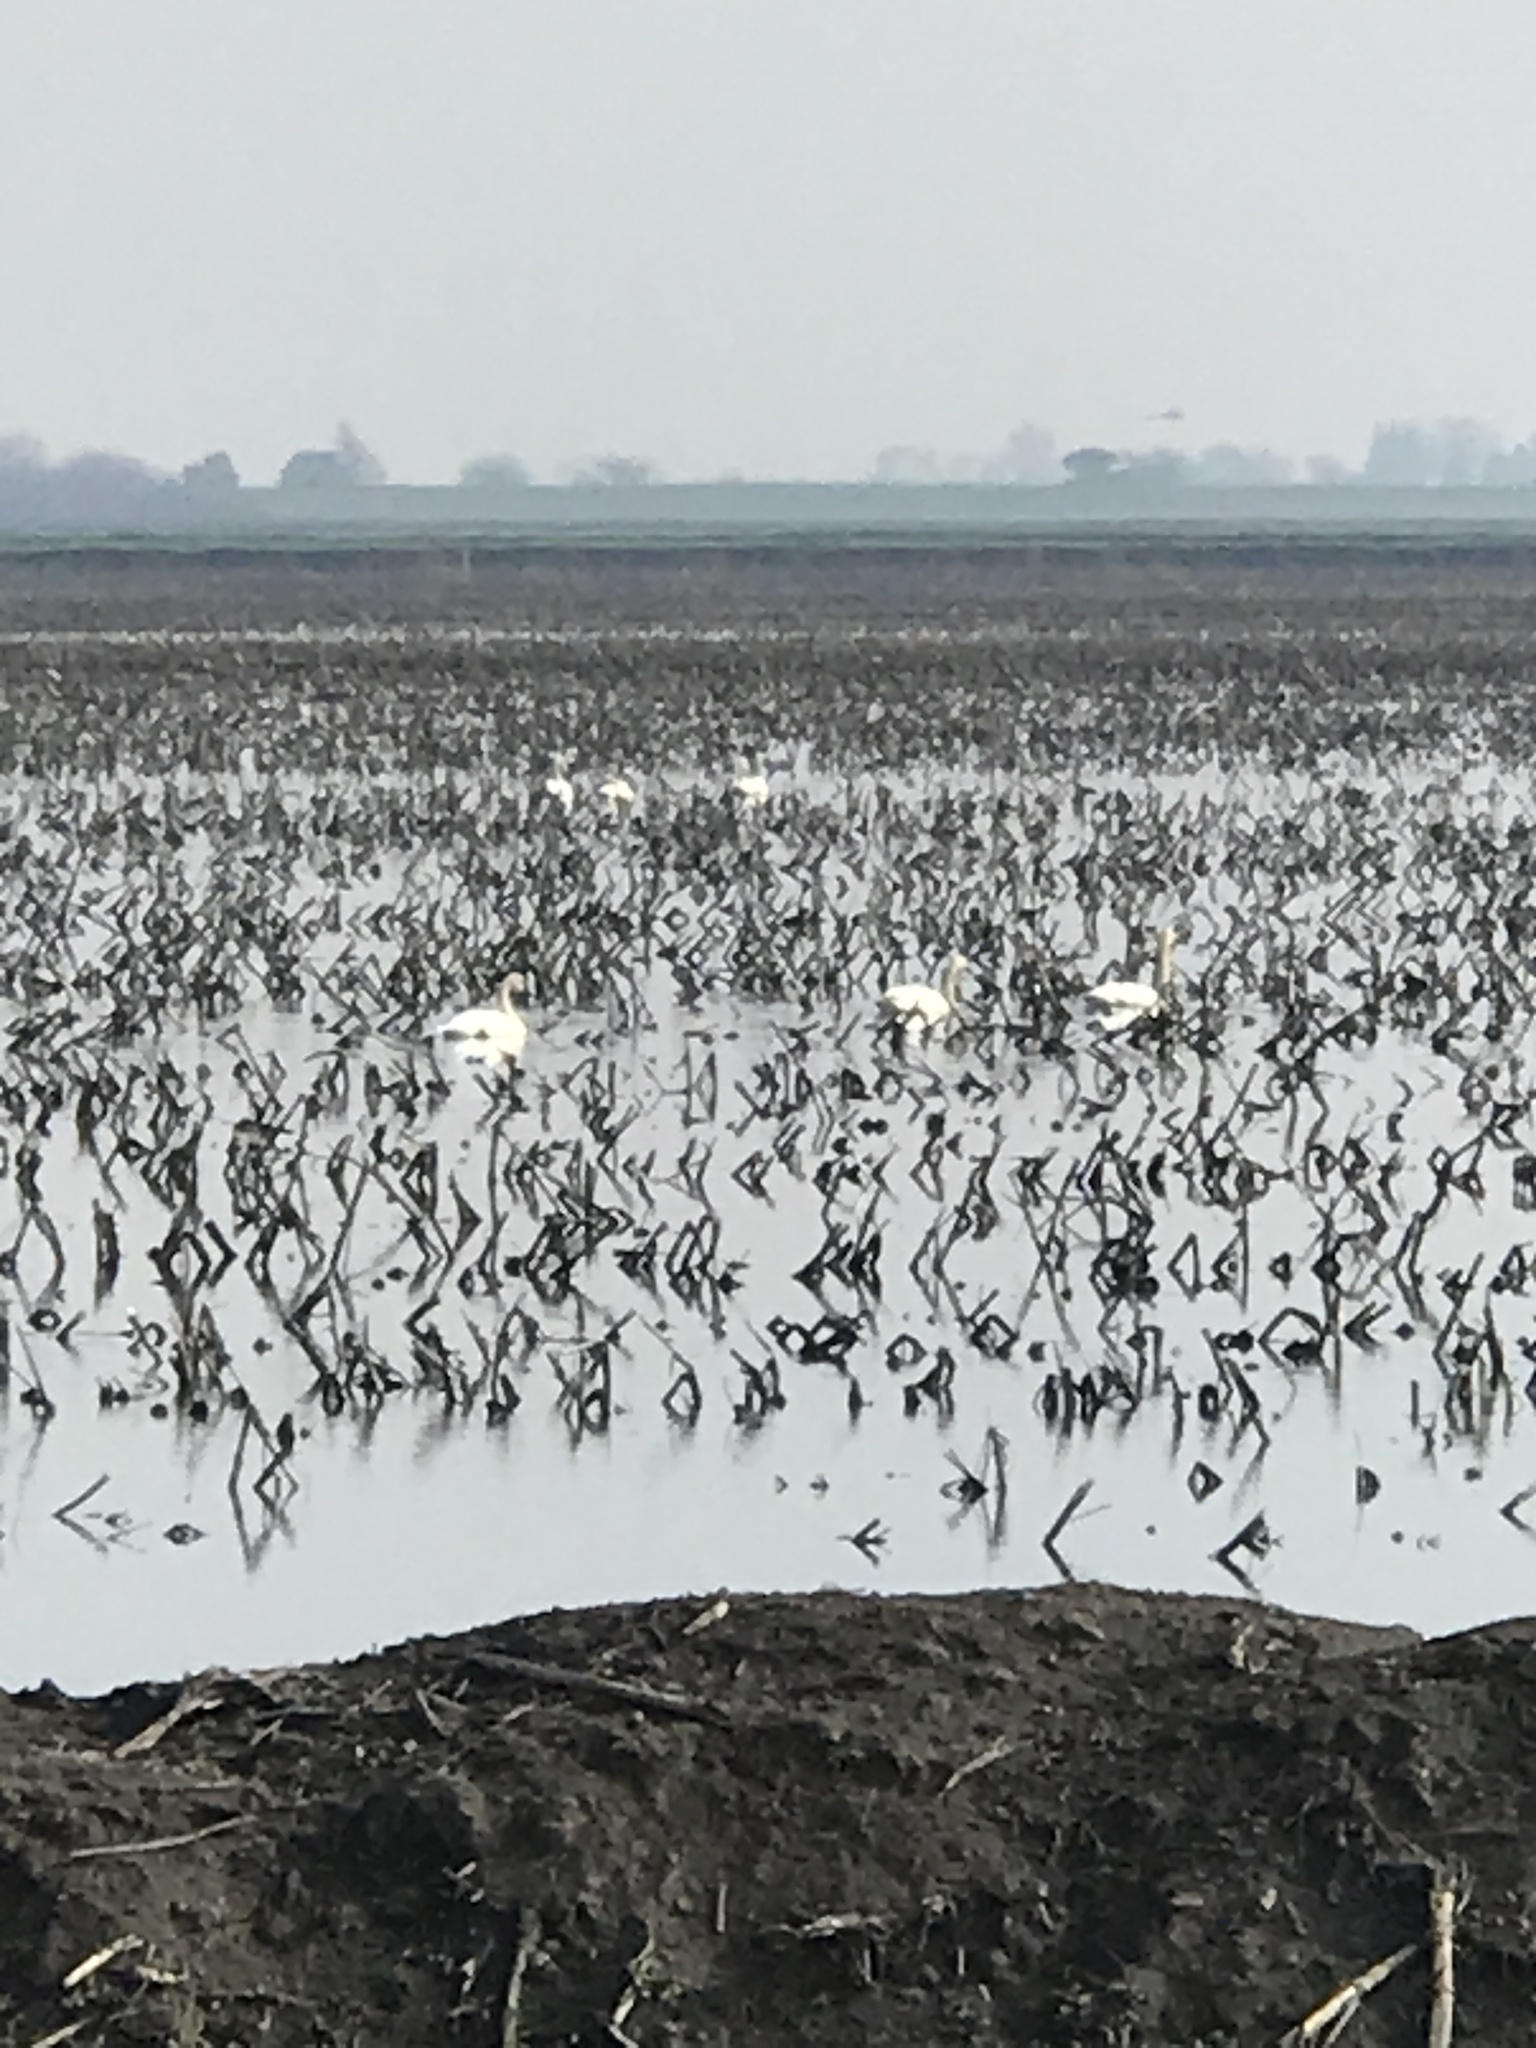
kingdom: Animalia
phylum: Chordata
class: Aves
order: Anseriformes
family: Anatidae
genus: Cygnus
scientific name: Cygnus columbianus
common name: Tundra swan
